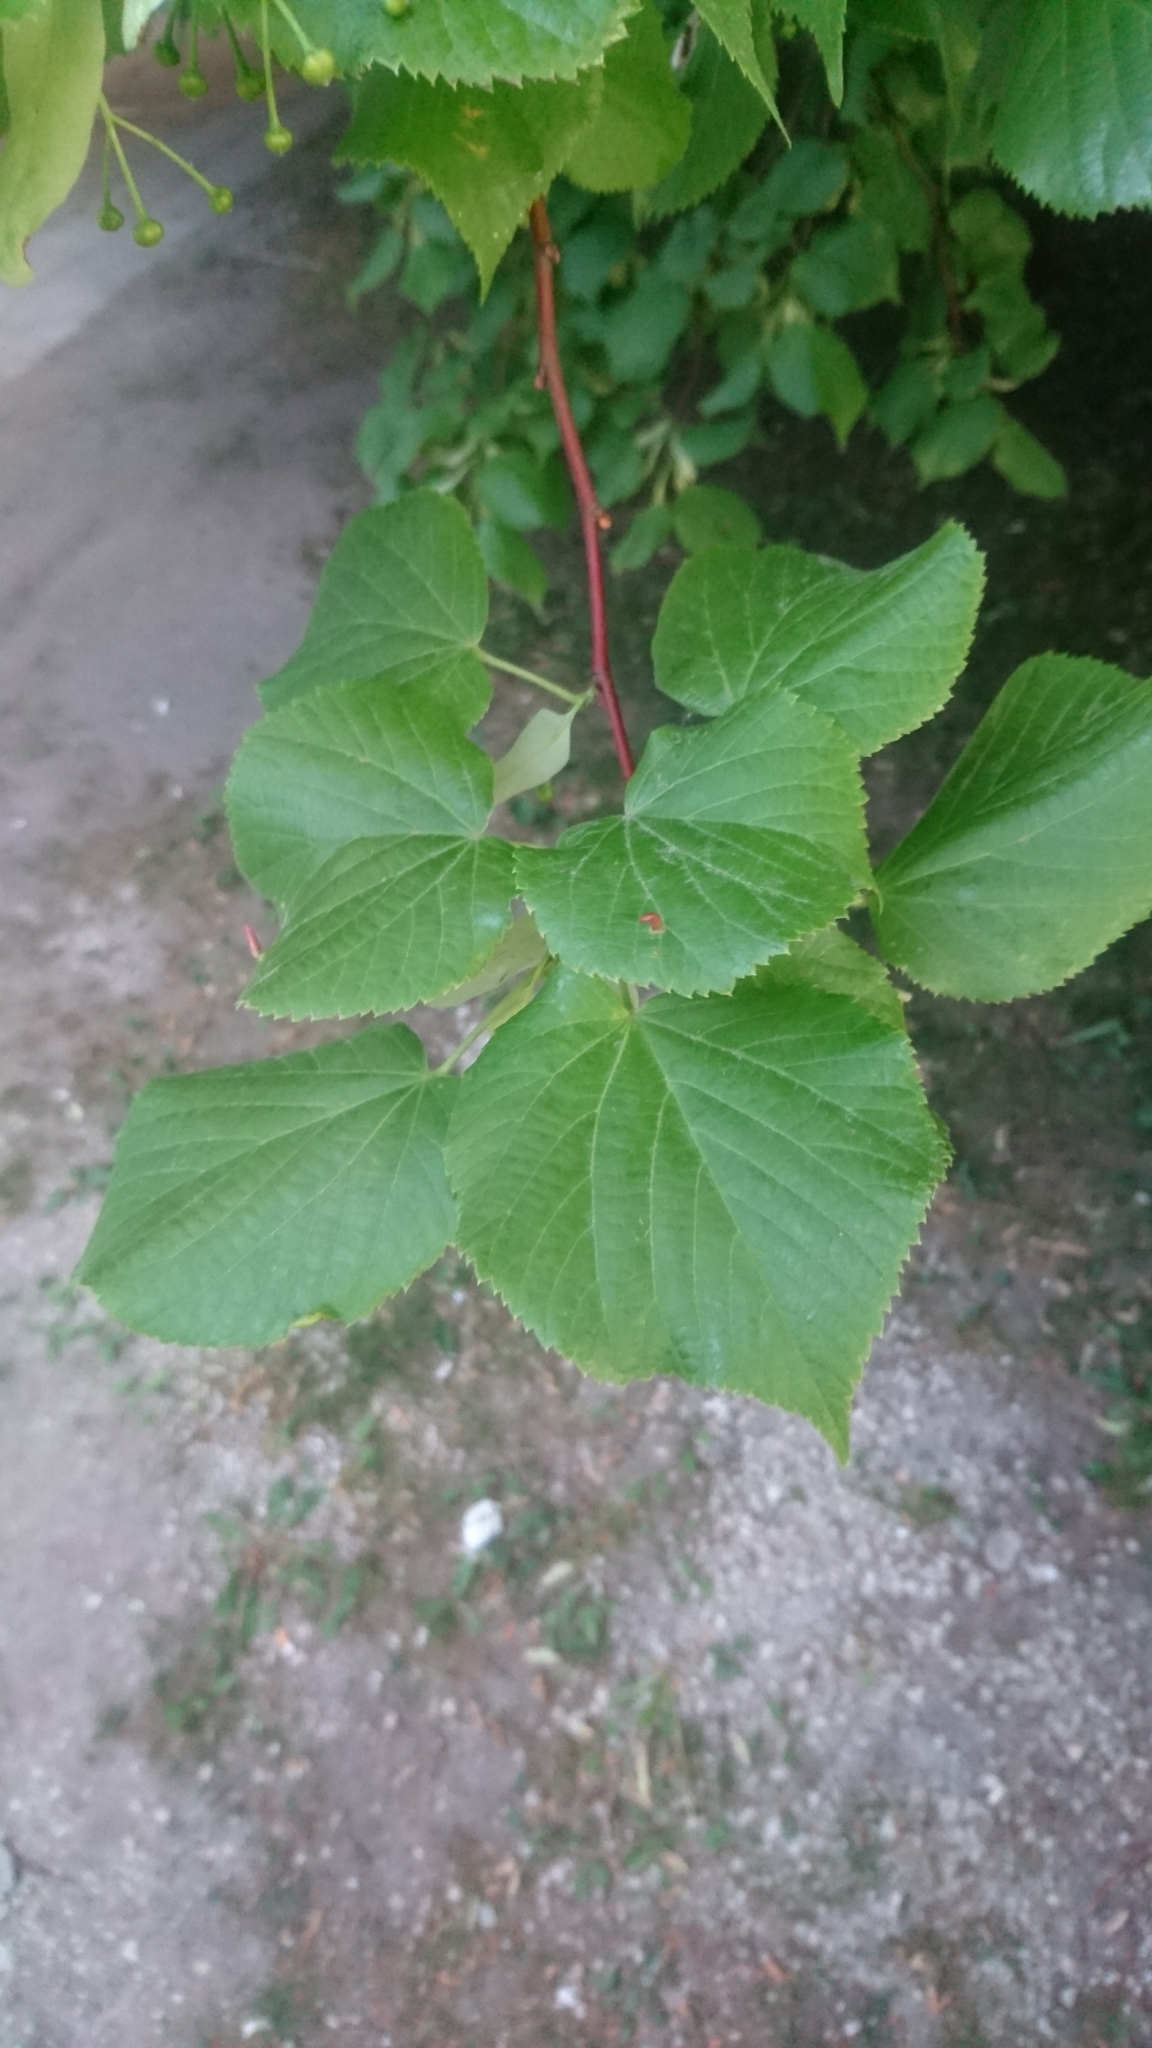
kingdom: Plantae
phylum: Tracheophyta
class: Magnoliopsida
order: Malvales
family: Malvaceae
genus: Tilia
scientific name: Tilia cordata
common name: Small-leaved lime
